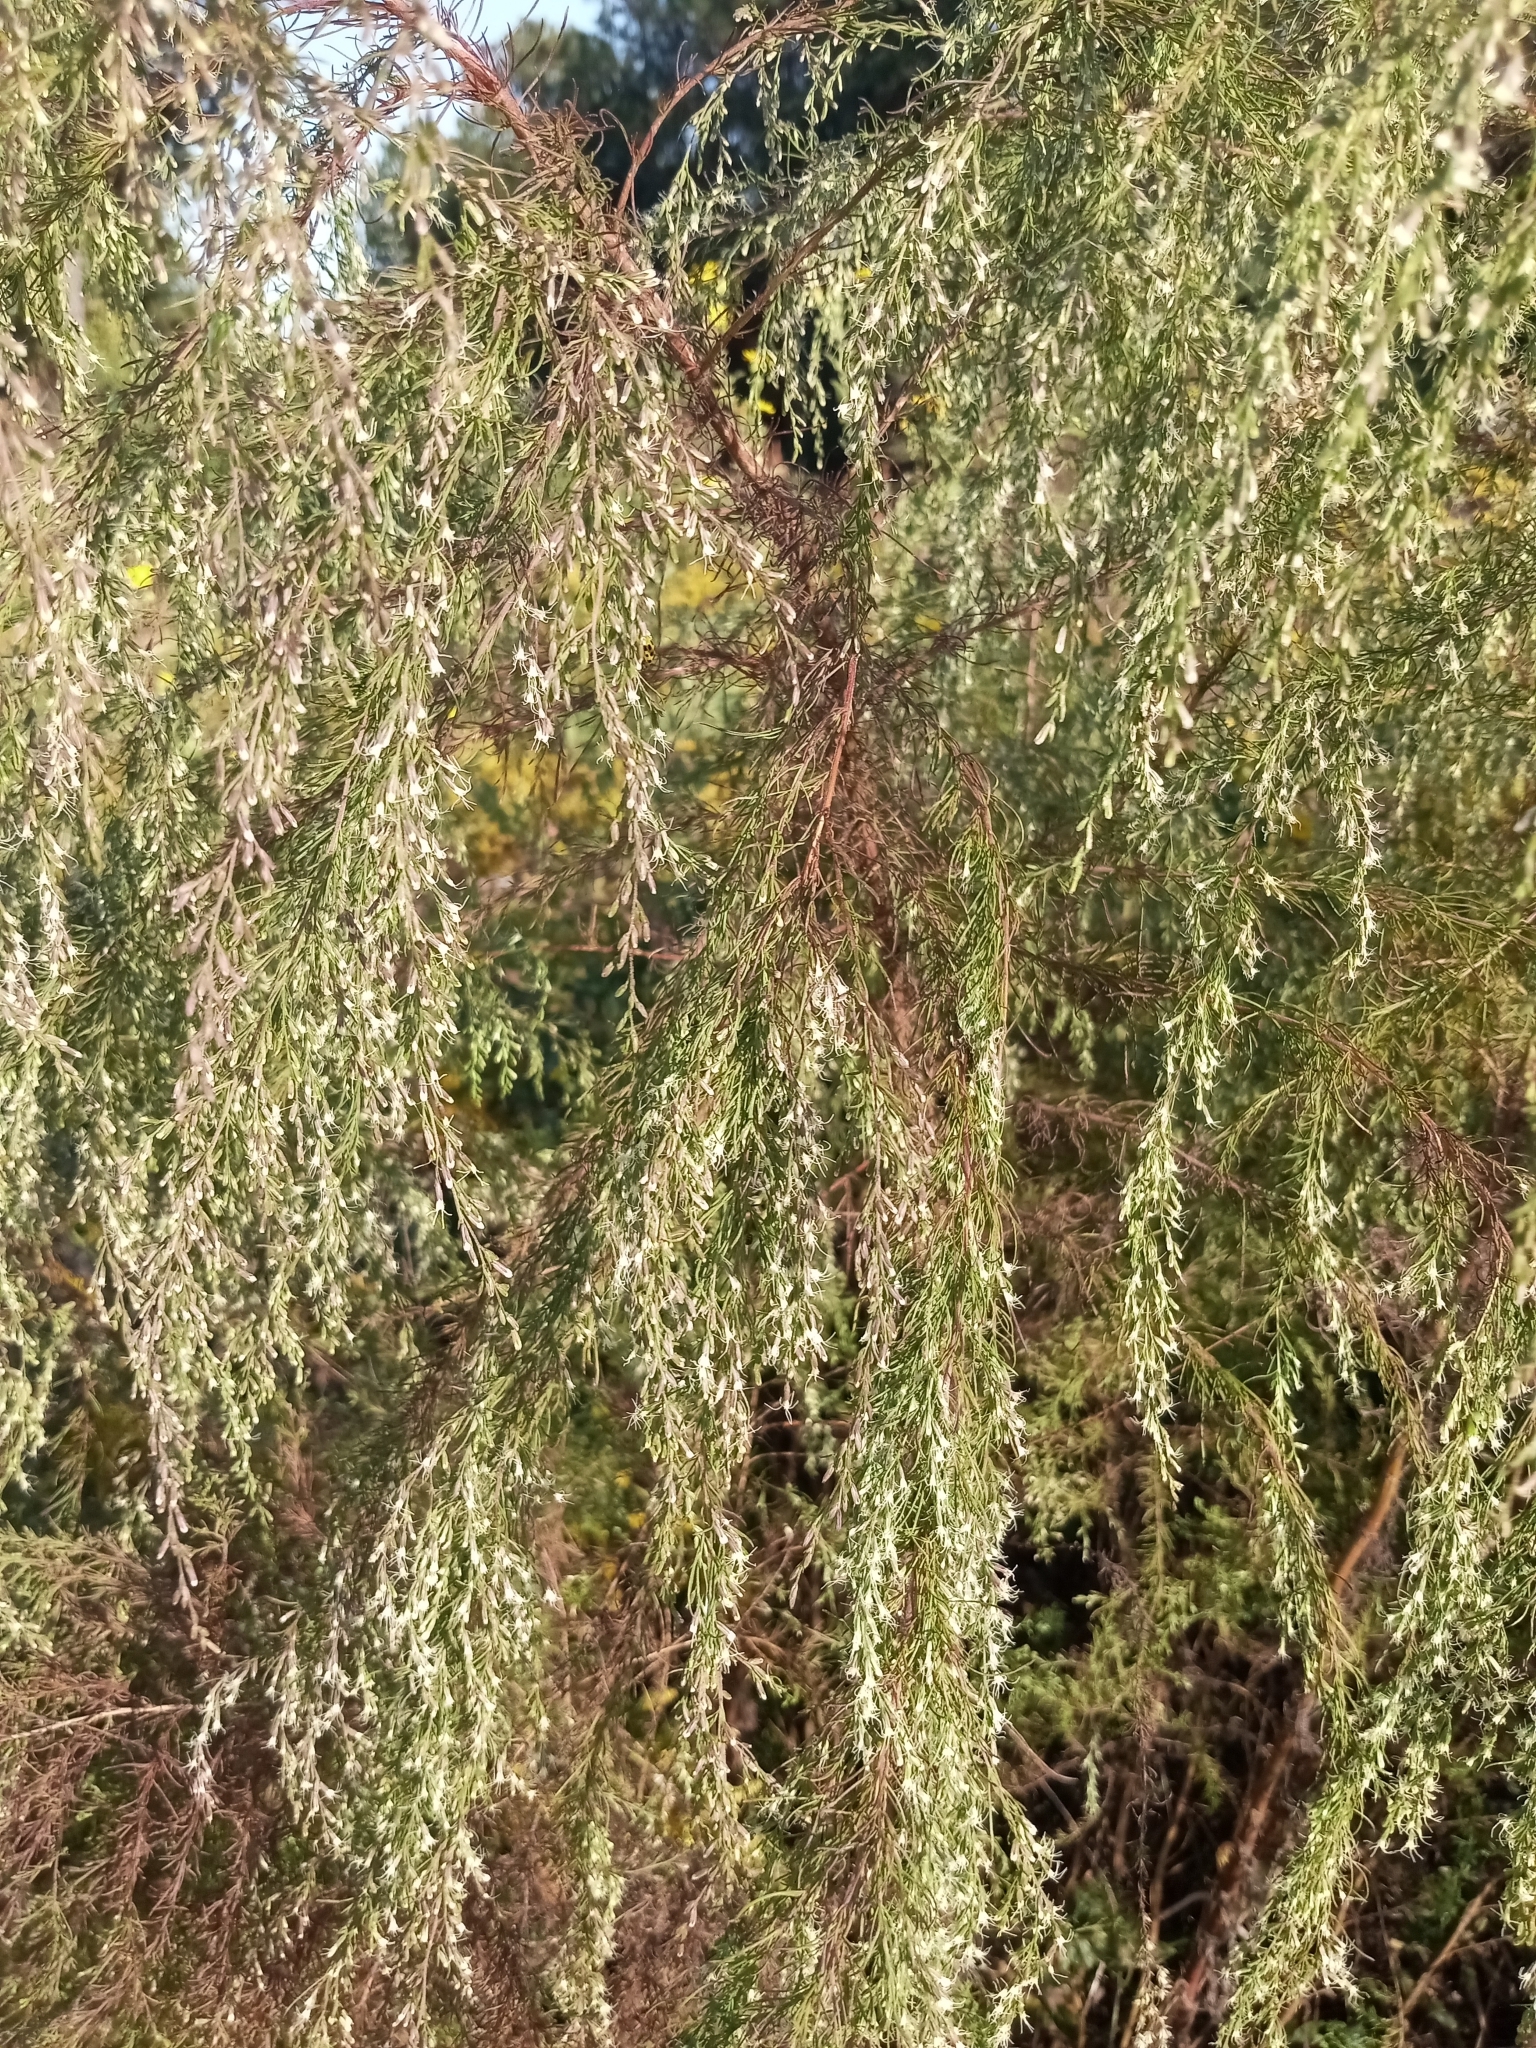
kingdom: Plantae
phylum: Tracheophyta
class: Magnoliopsida
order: Asterales
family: Asteraceae
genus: Eupatorium
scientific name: Eupatorium capillifolium
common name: Dog-fennel
